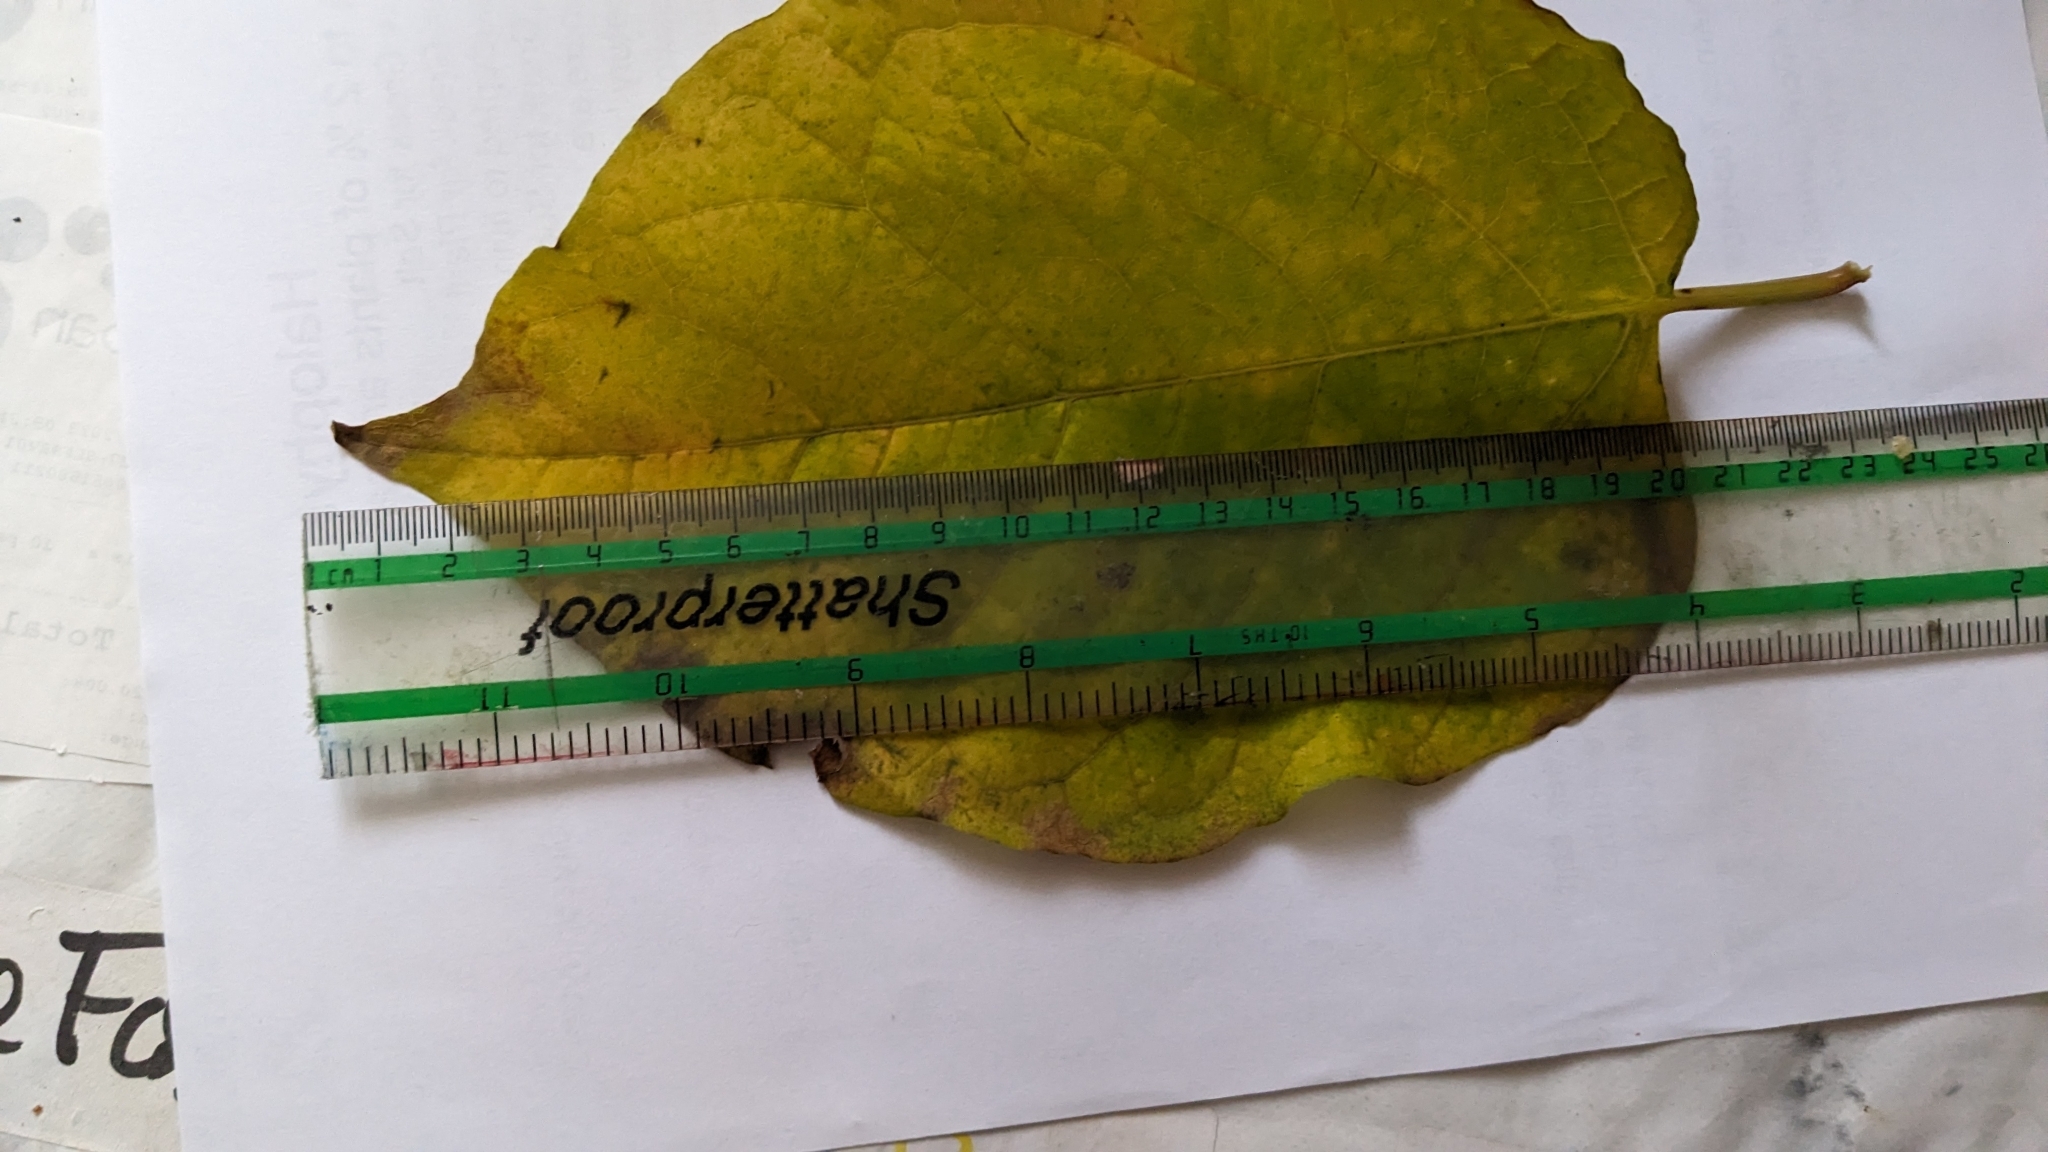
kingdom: Plantae
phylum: Tracheophyta
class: Magnoliopsida
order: Caryophyllales
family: Polygonaceae
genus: Reynoutria
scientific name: Reynoutria bohemica
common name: Bohemian knotweed
